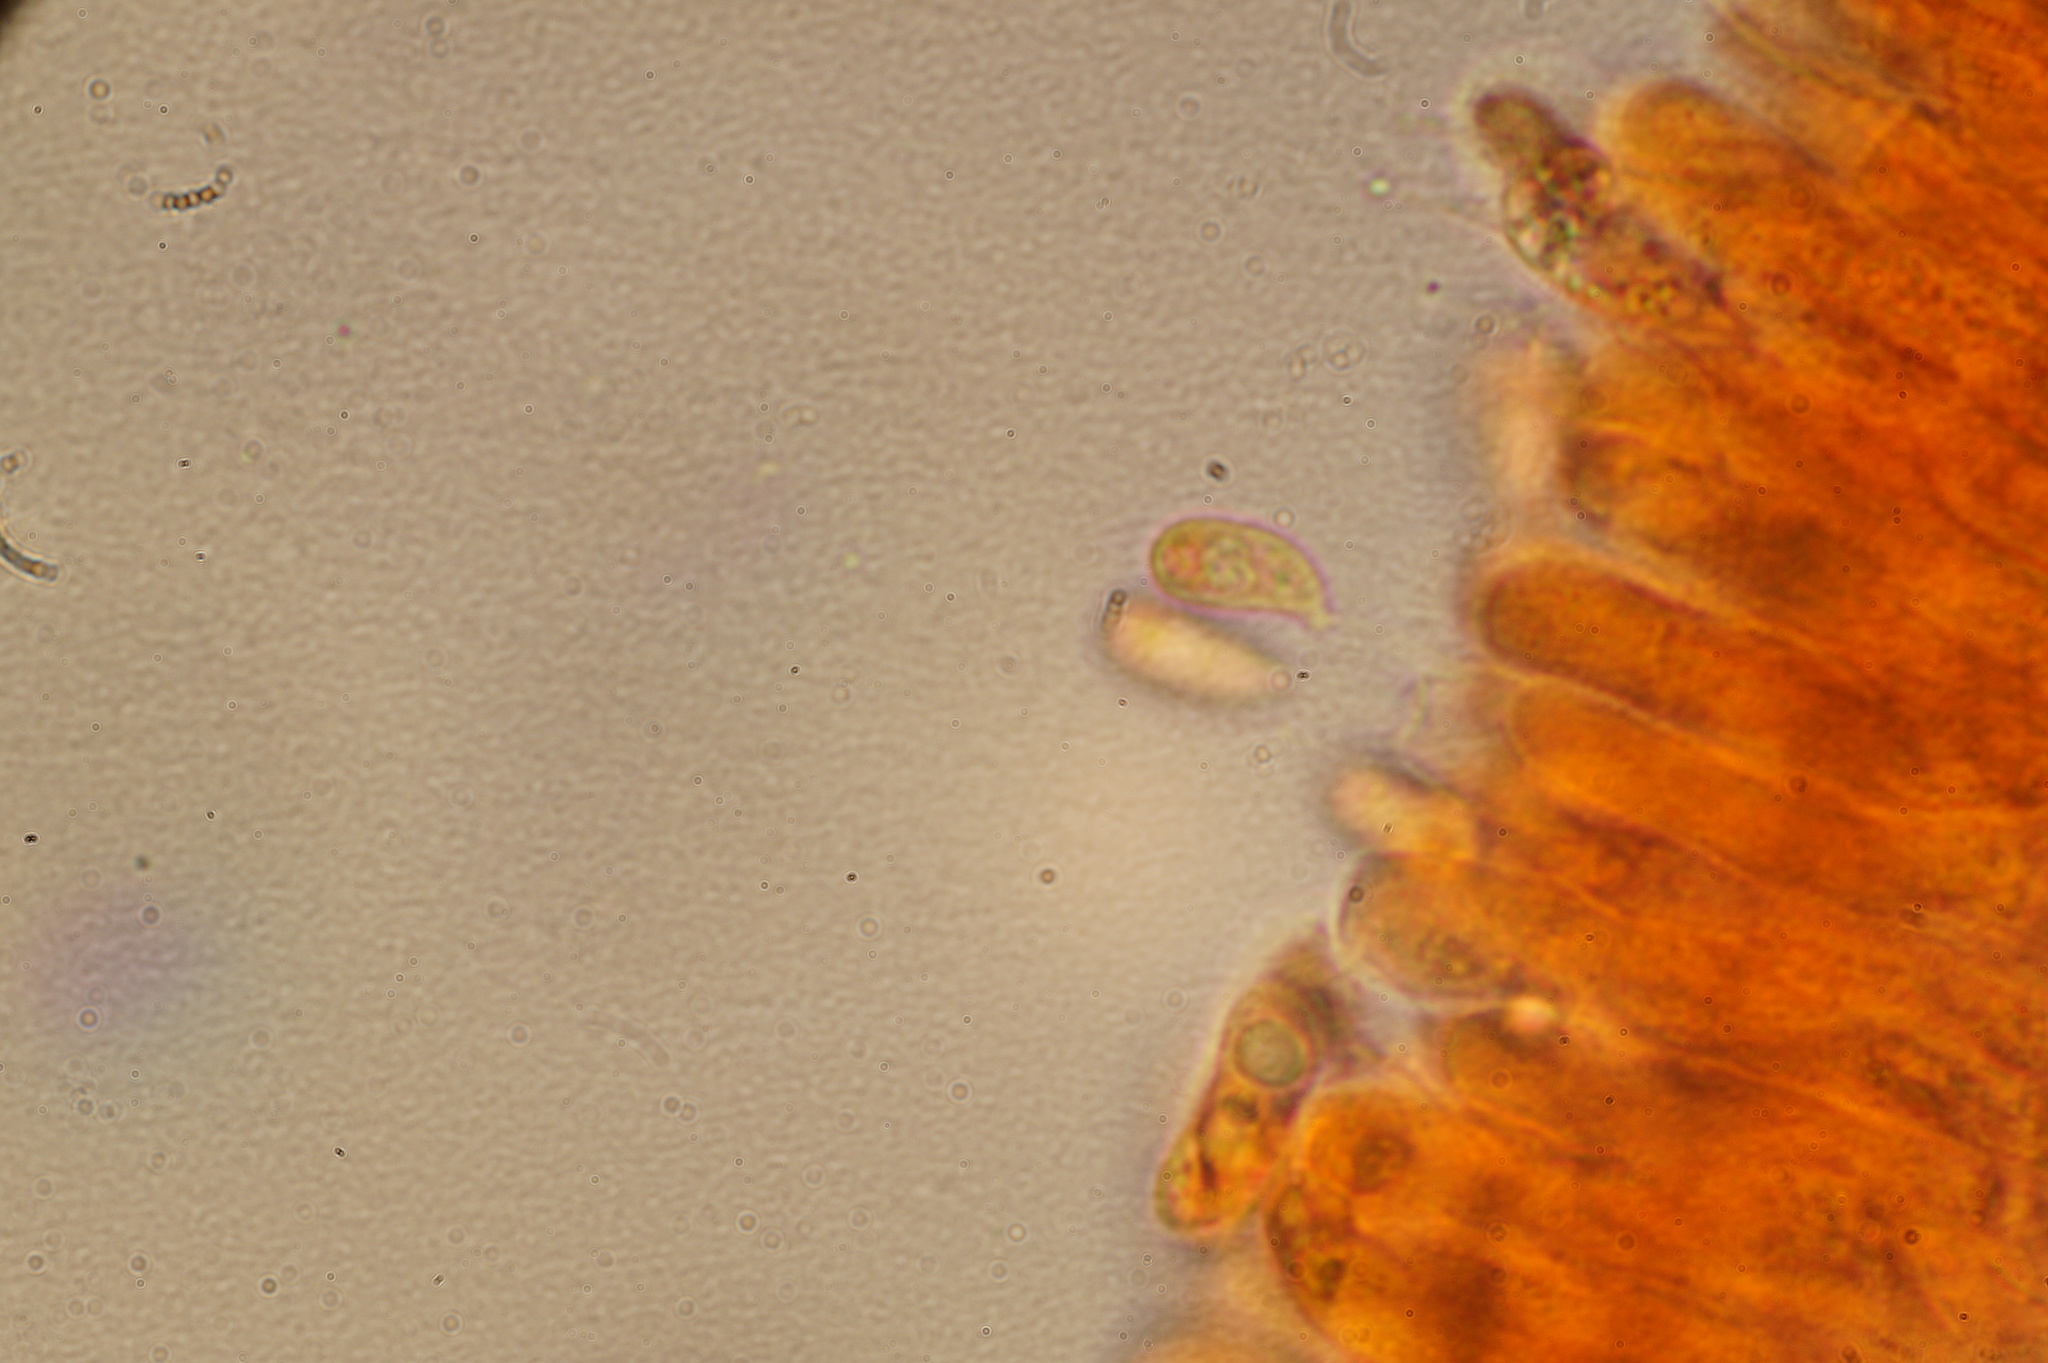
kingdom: Fungi
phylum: Basidiomycota
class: Agaricomycetes
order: Hymenochaetales
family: Rickenellaceae
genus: Contumyces
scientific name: Contumyces rosellus
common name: Rosy navel
